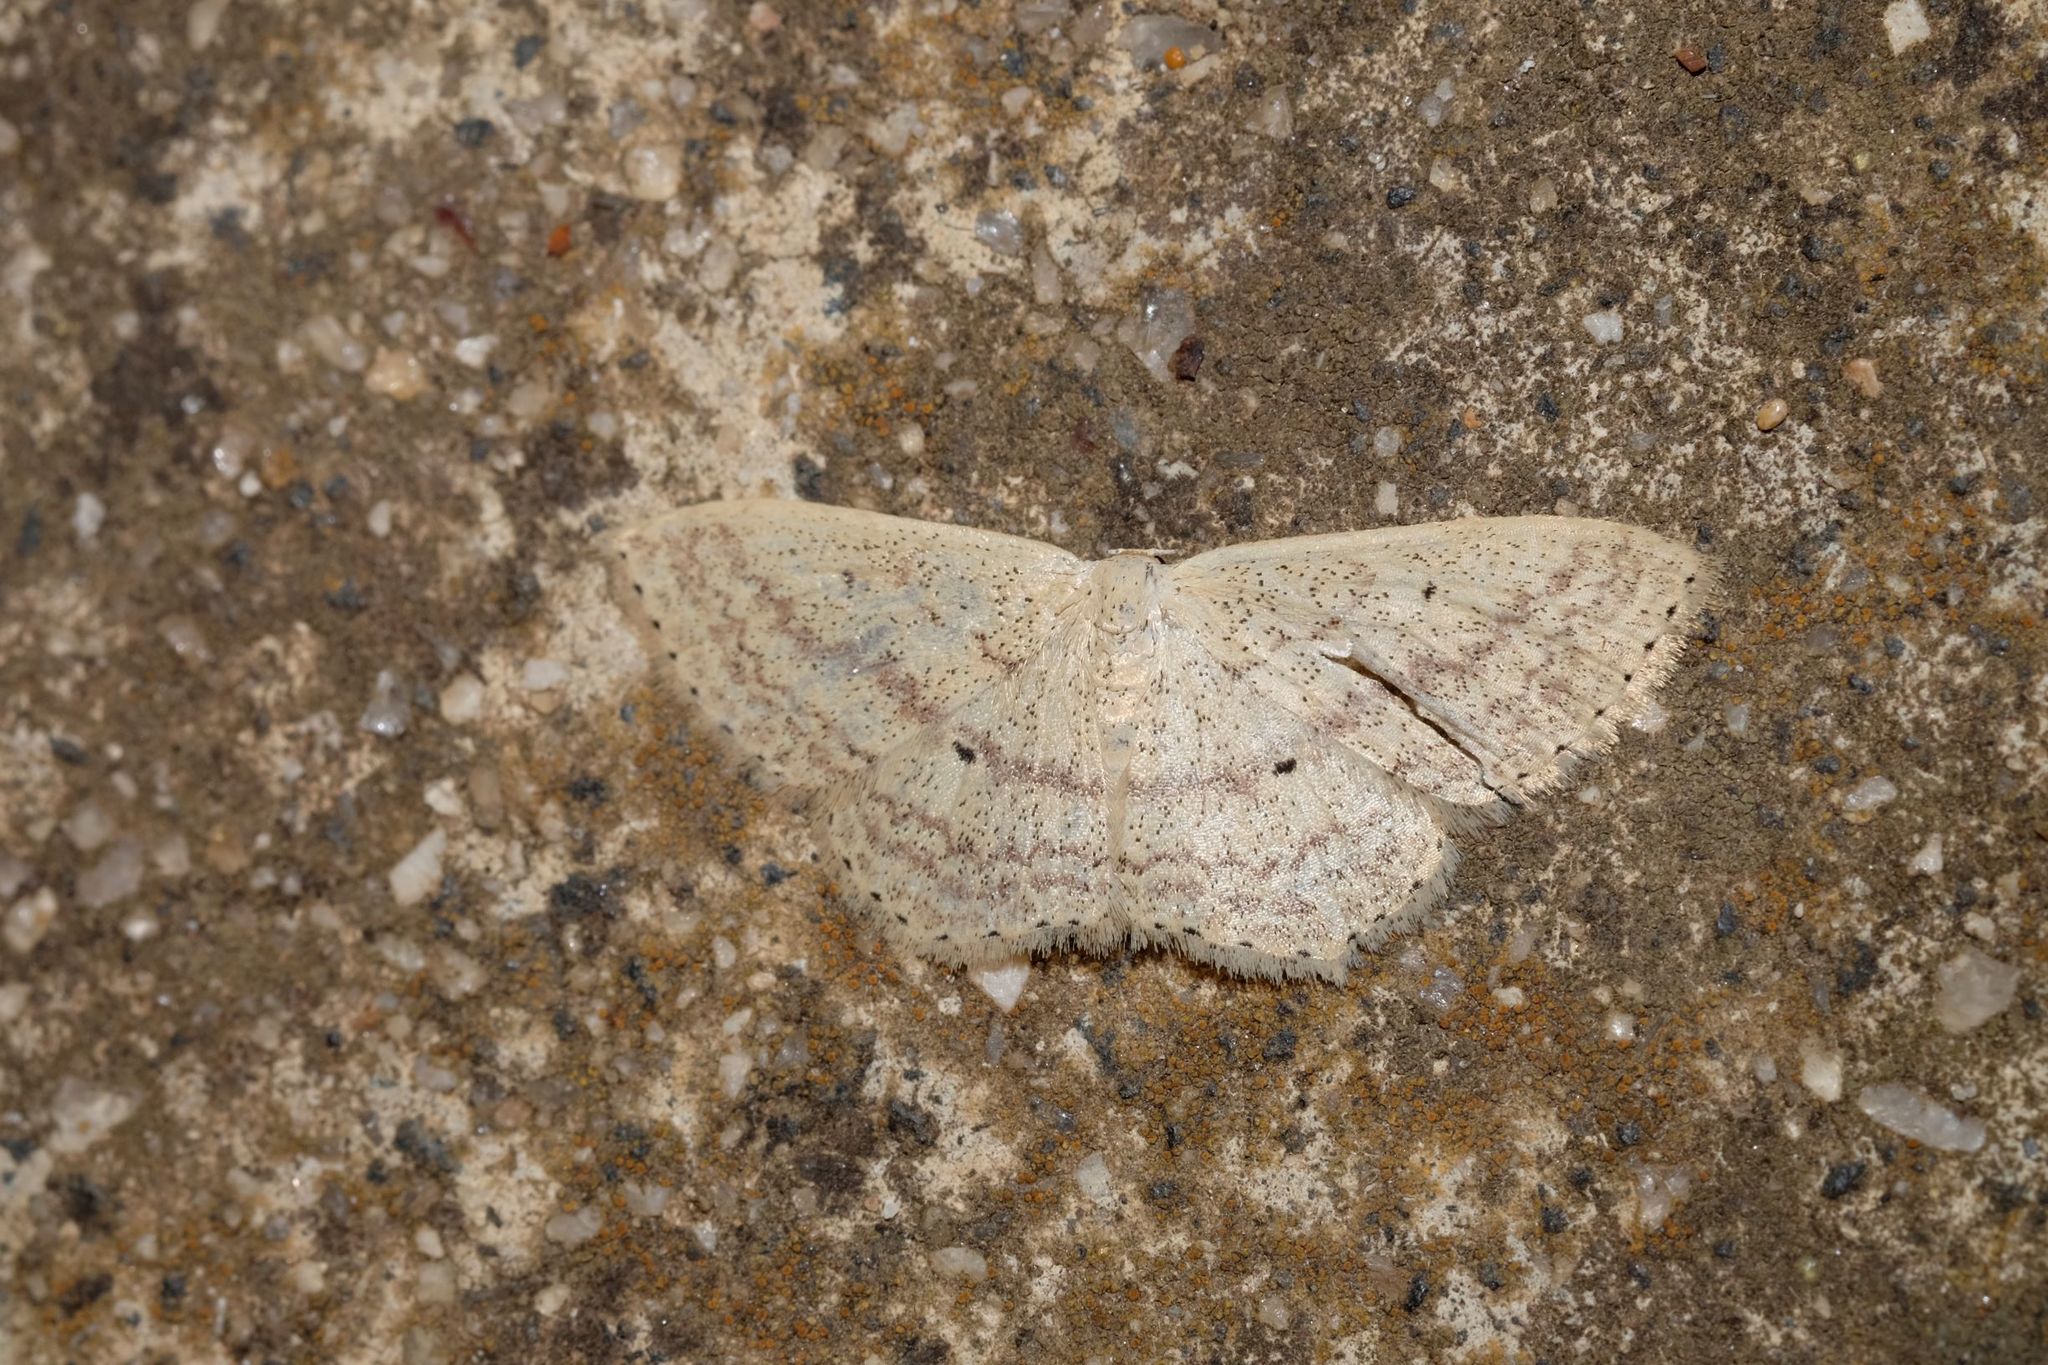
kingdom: Animalia
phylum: Arthropoda
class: Insecta
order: Lepidoptera
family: Geometridae
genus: Scopula
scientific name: Scopula perlata
